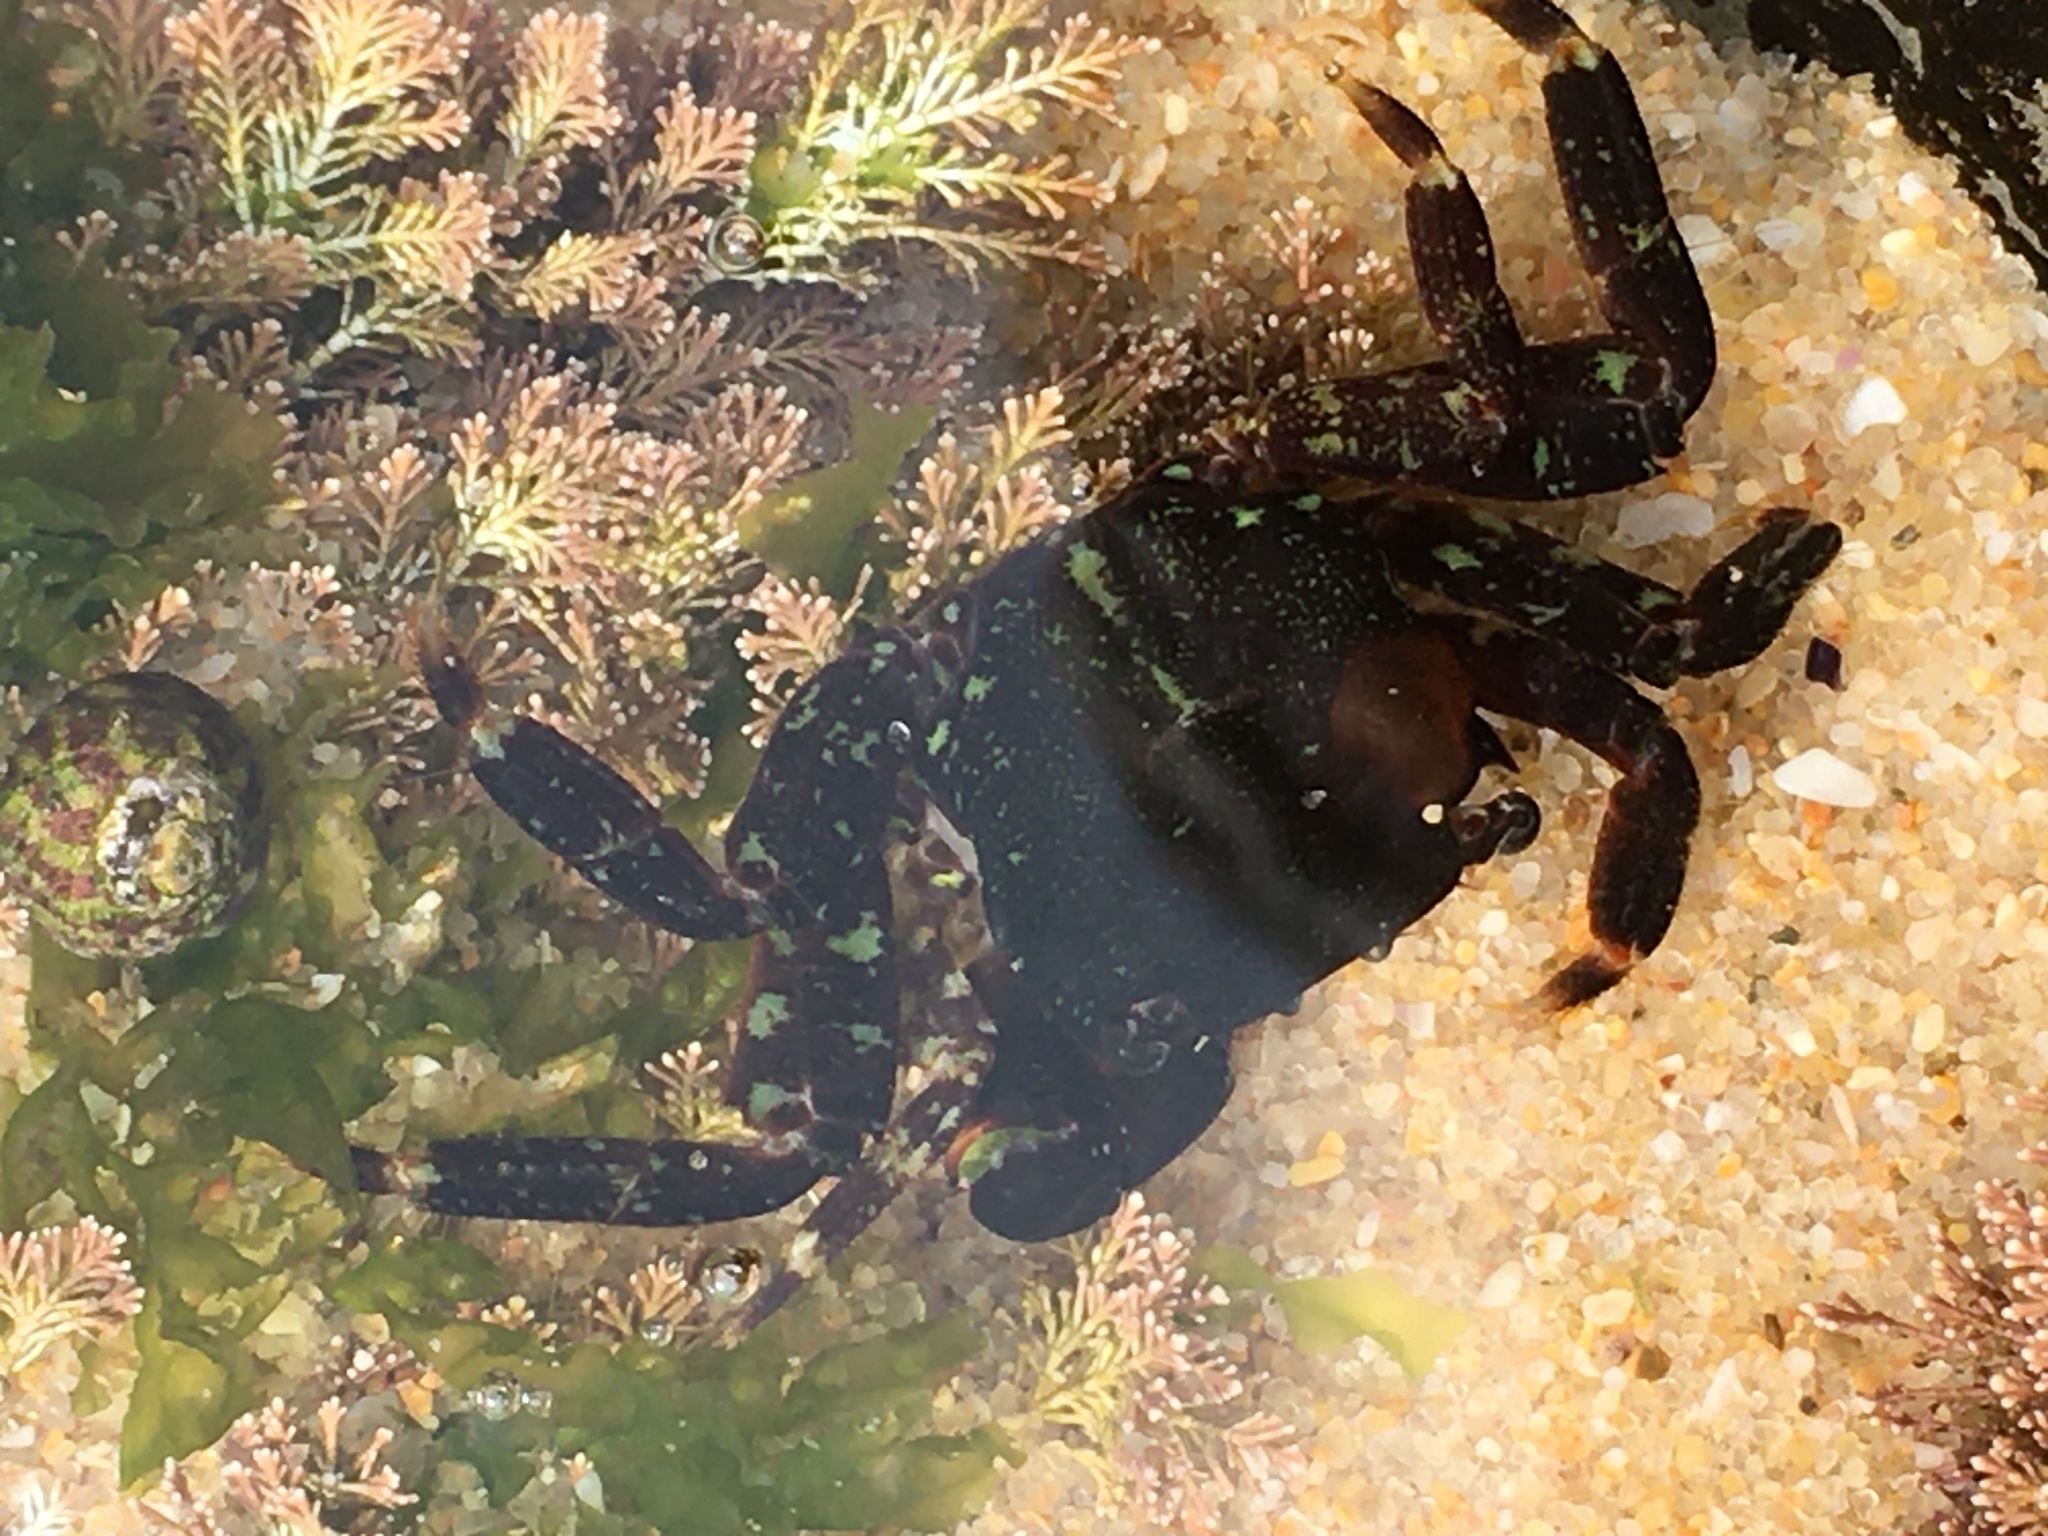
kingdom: Animalia
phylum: Arthropoda
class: Malacostraca
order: Decapoda
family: Grapsidae
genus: Pachygrapsus
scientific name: Pachygrapsus marmoratus
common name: Marbled rock crab
